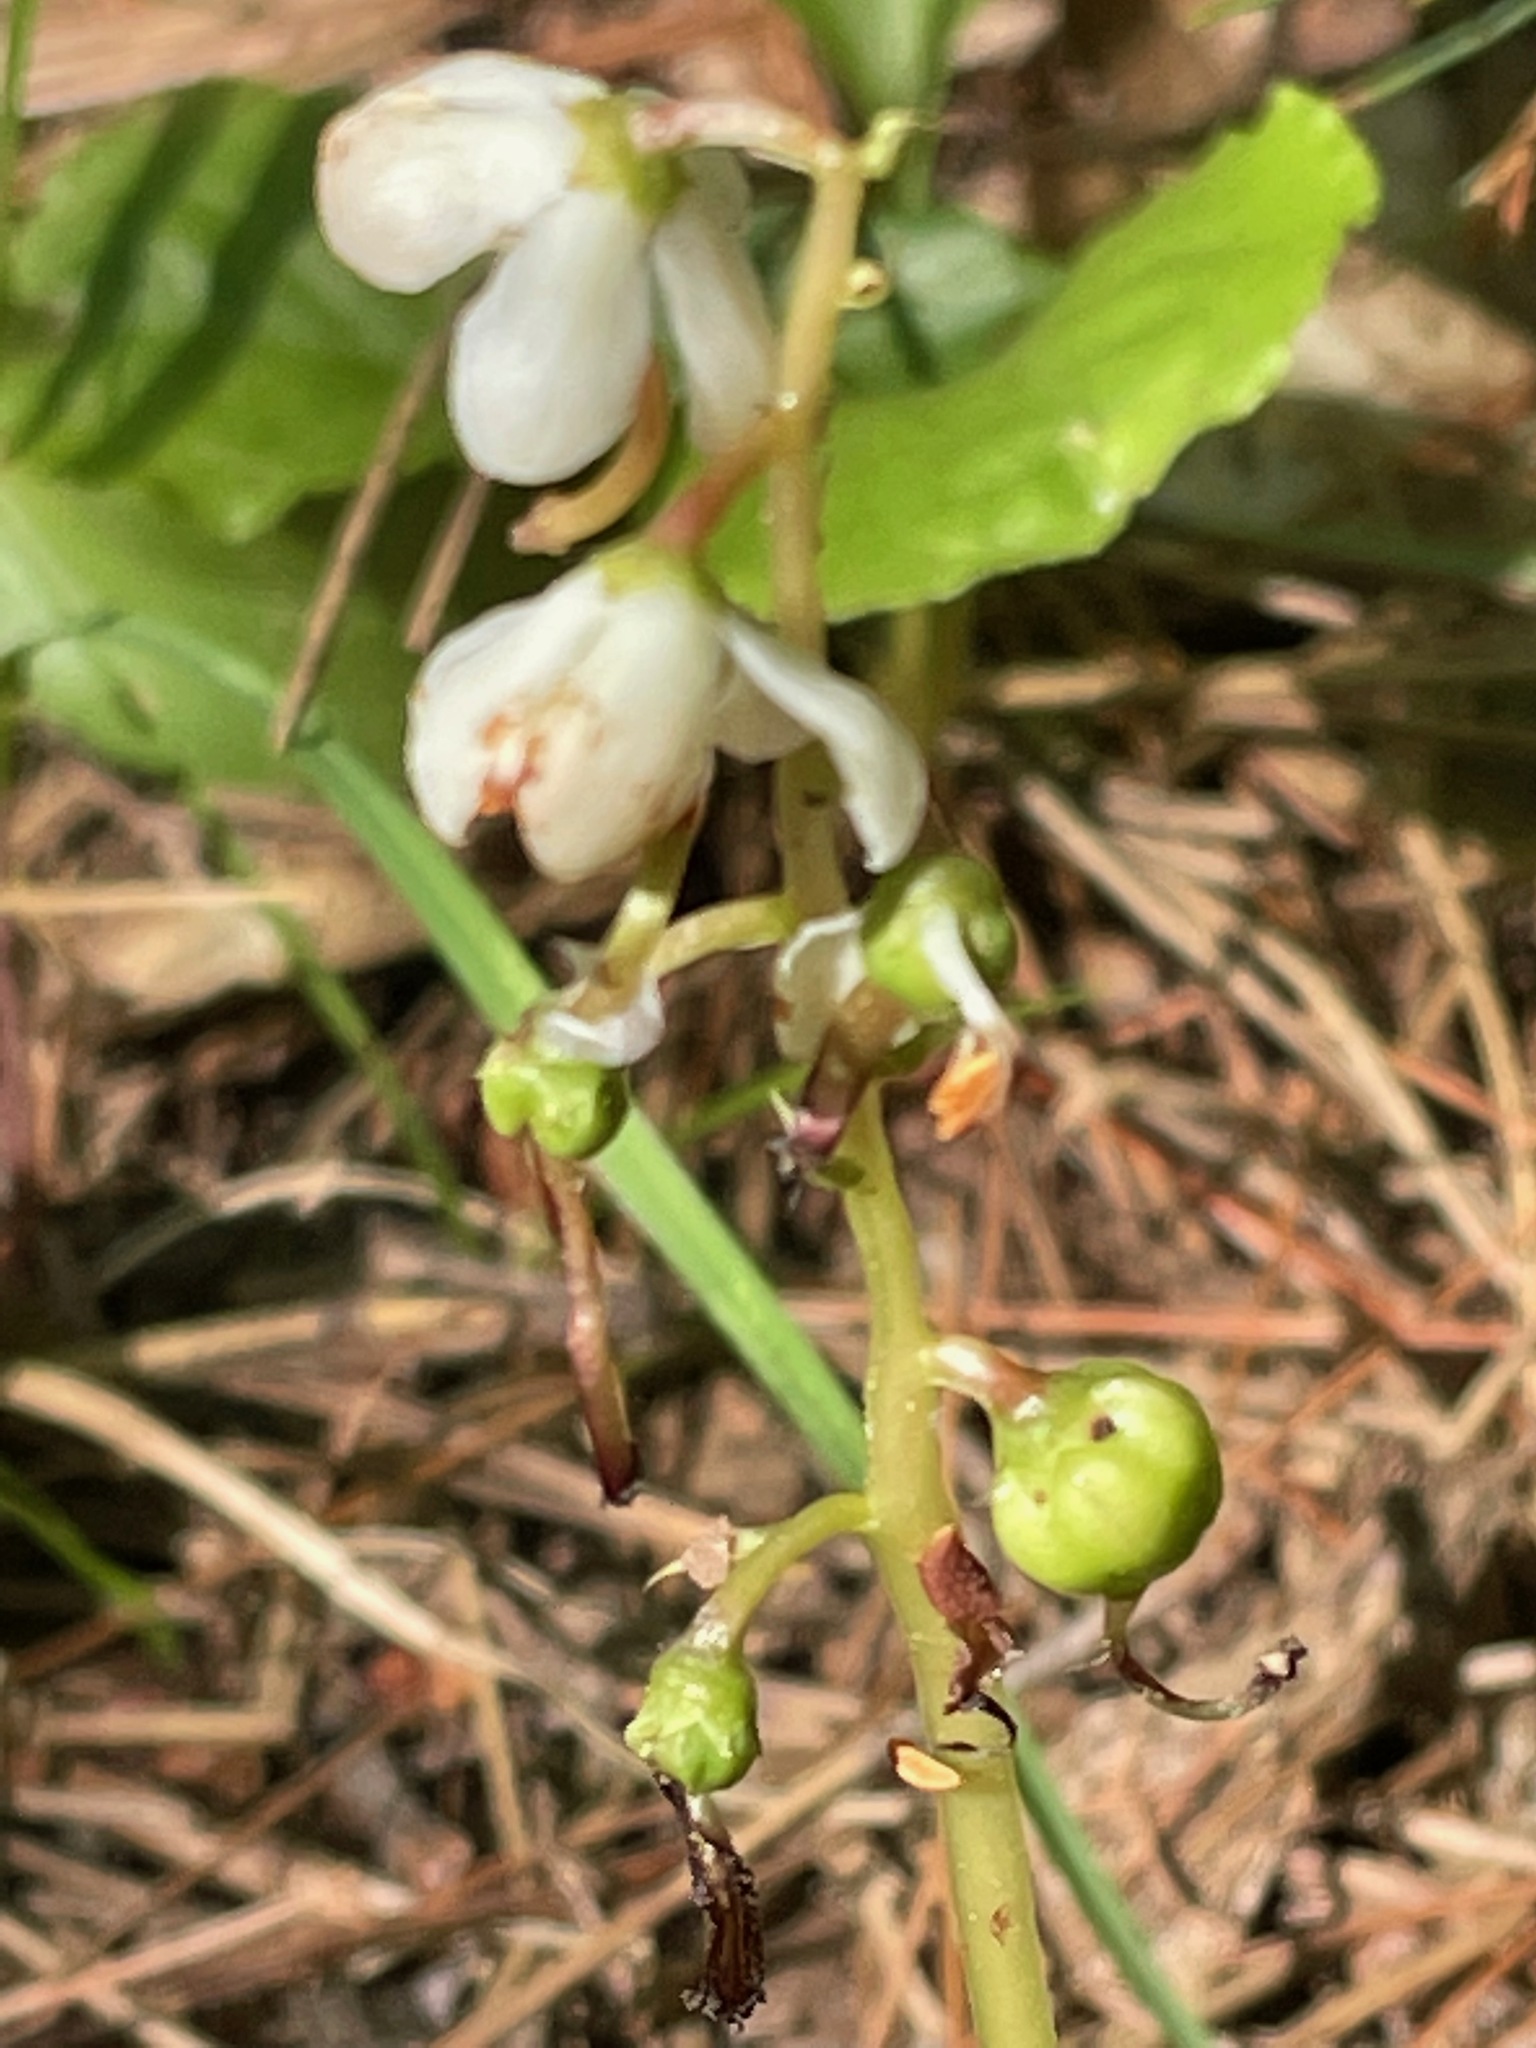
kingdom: Plantae
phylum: Tracheophyta
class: Magnoliopsida
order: Ericales
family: Ericaceae
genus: Pyrola
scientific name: Pyrola elliptica
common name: Shinleaf
